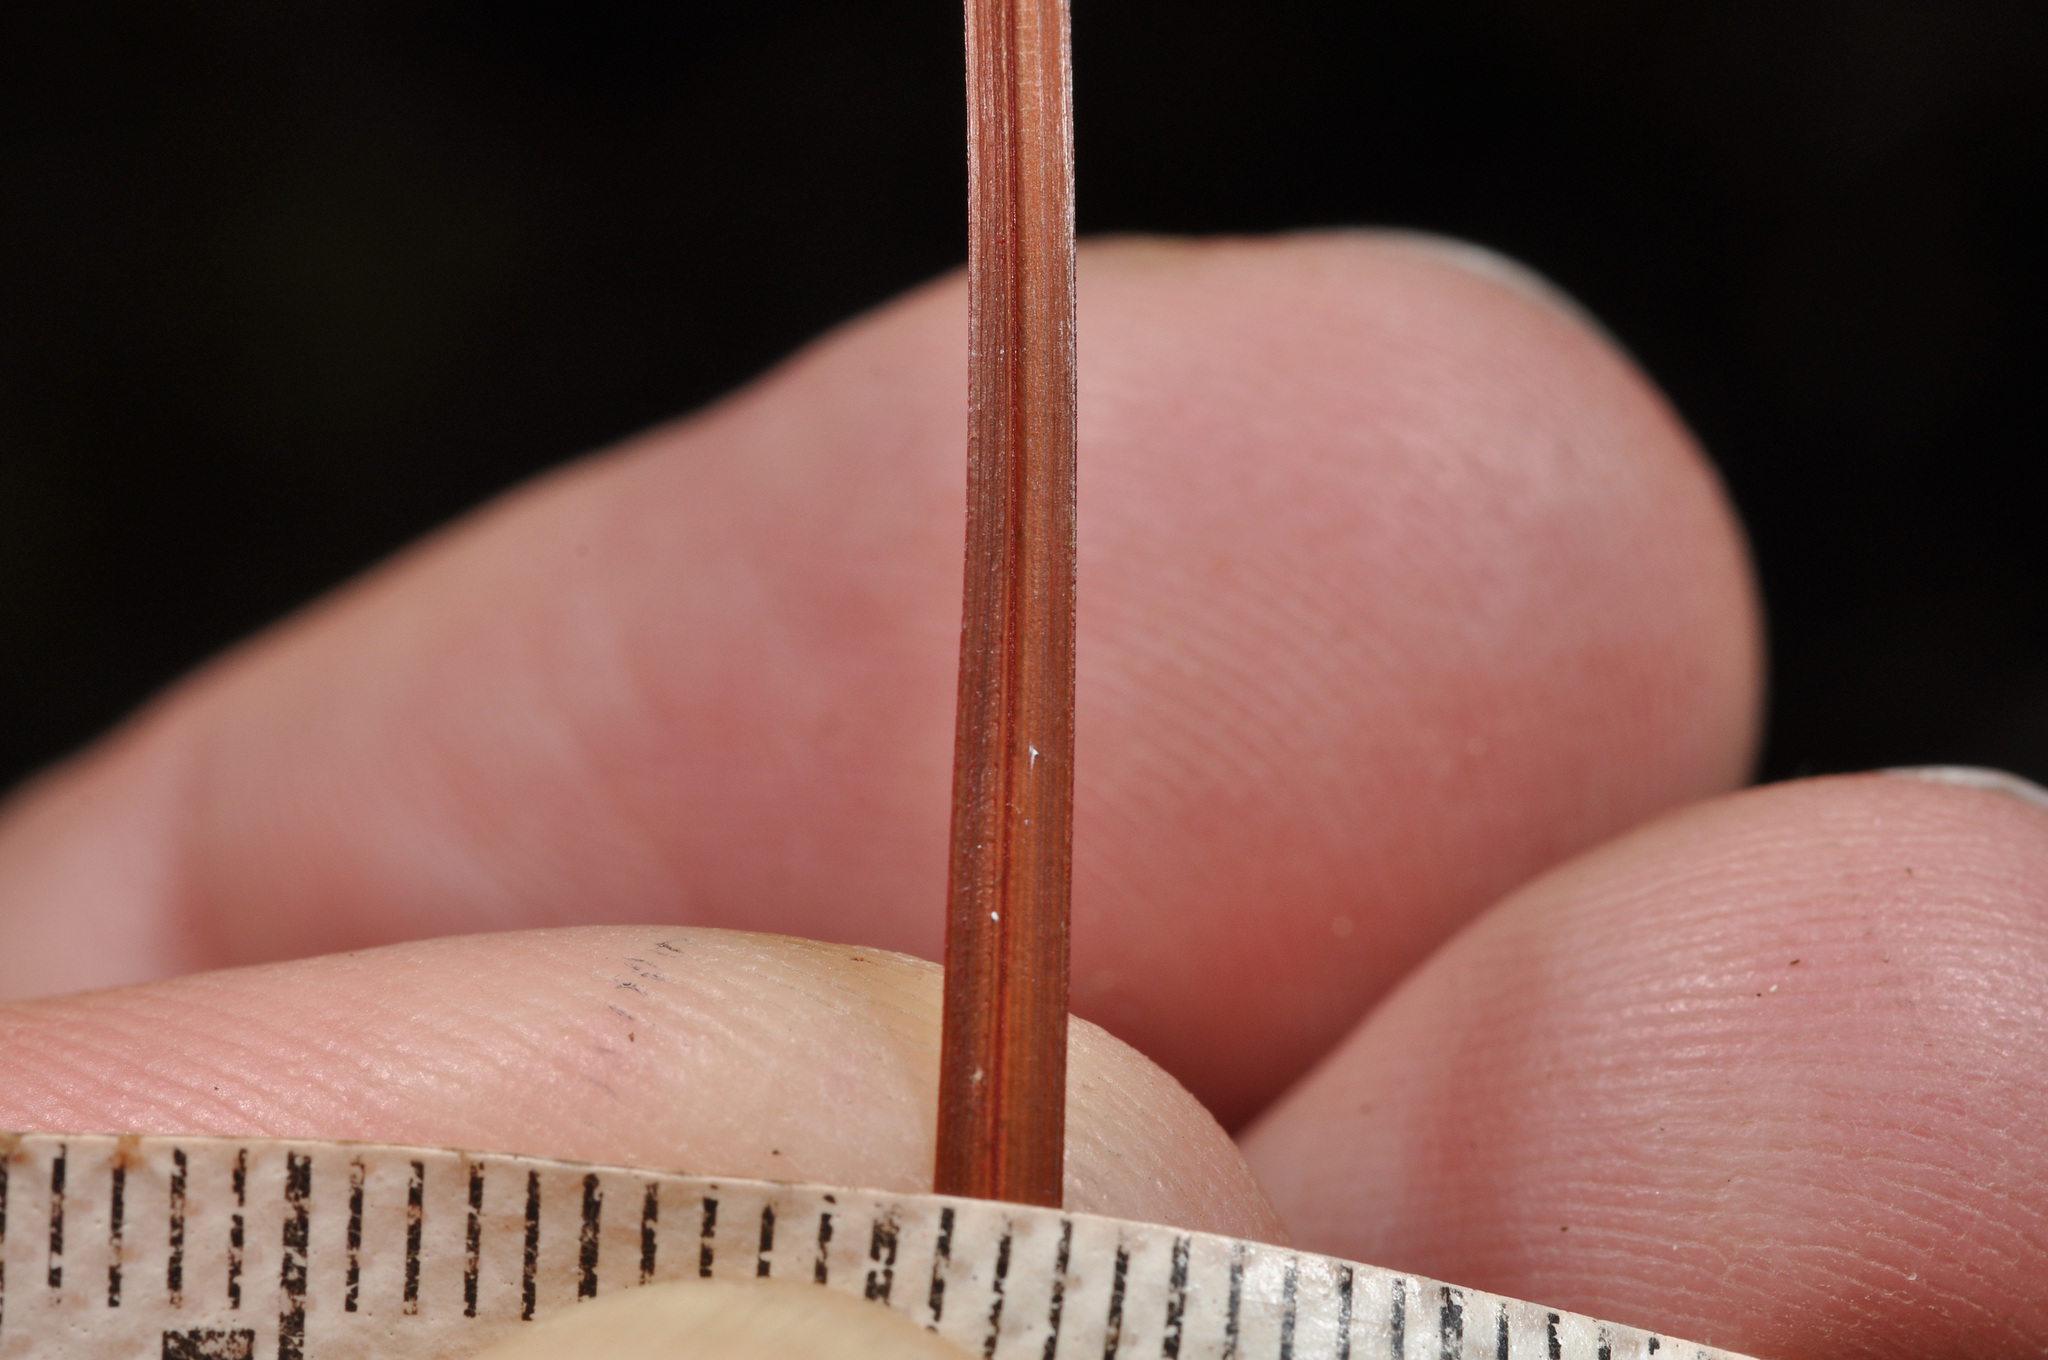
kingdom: Plantae
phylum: Tracheophyta
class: Liliopsida
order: Poales
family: Cyperaceae
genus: Carex
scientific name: Carex punicea
